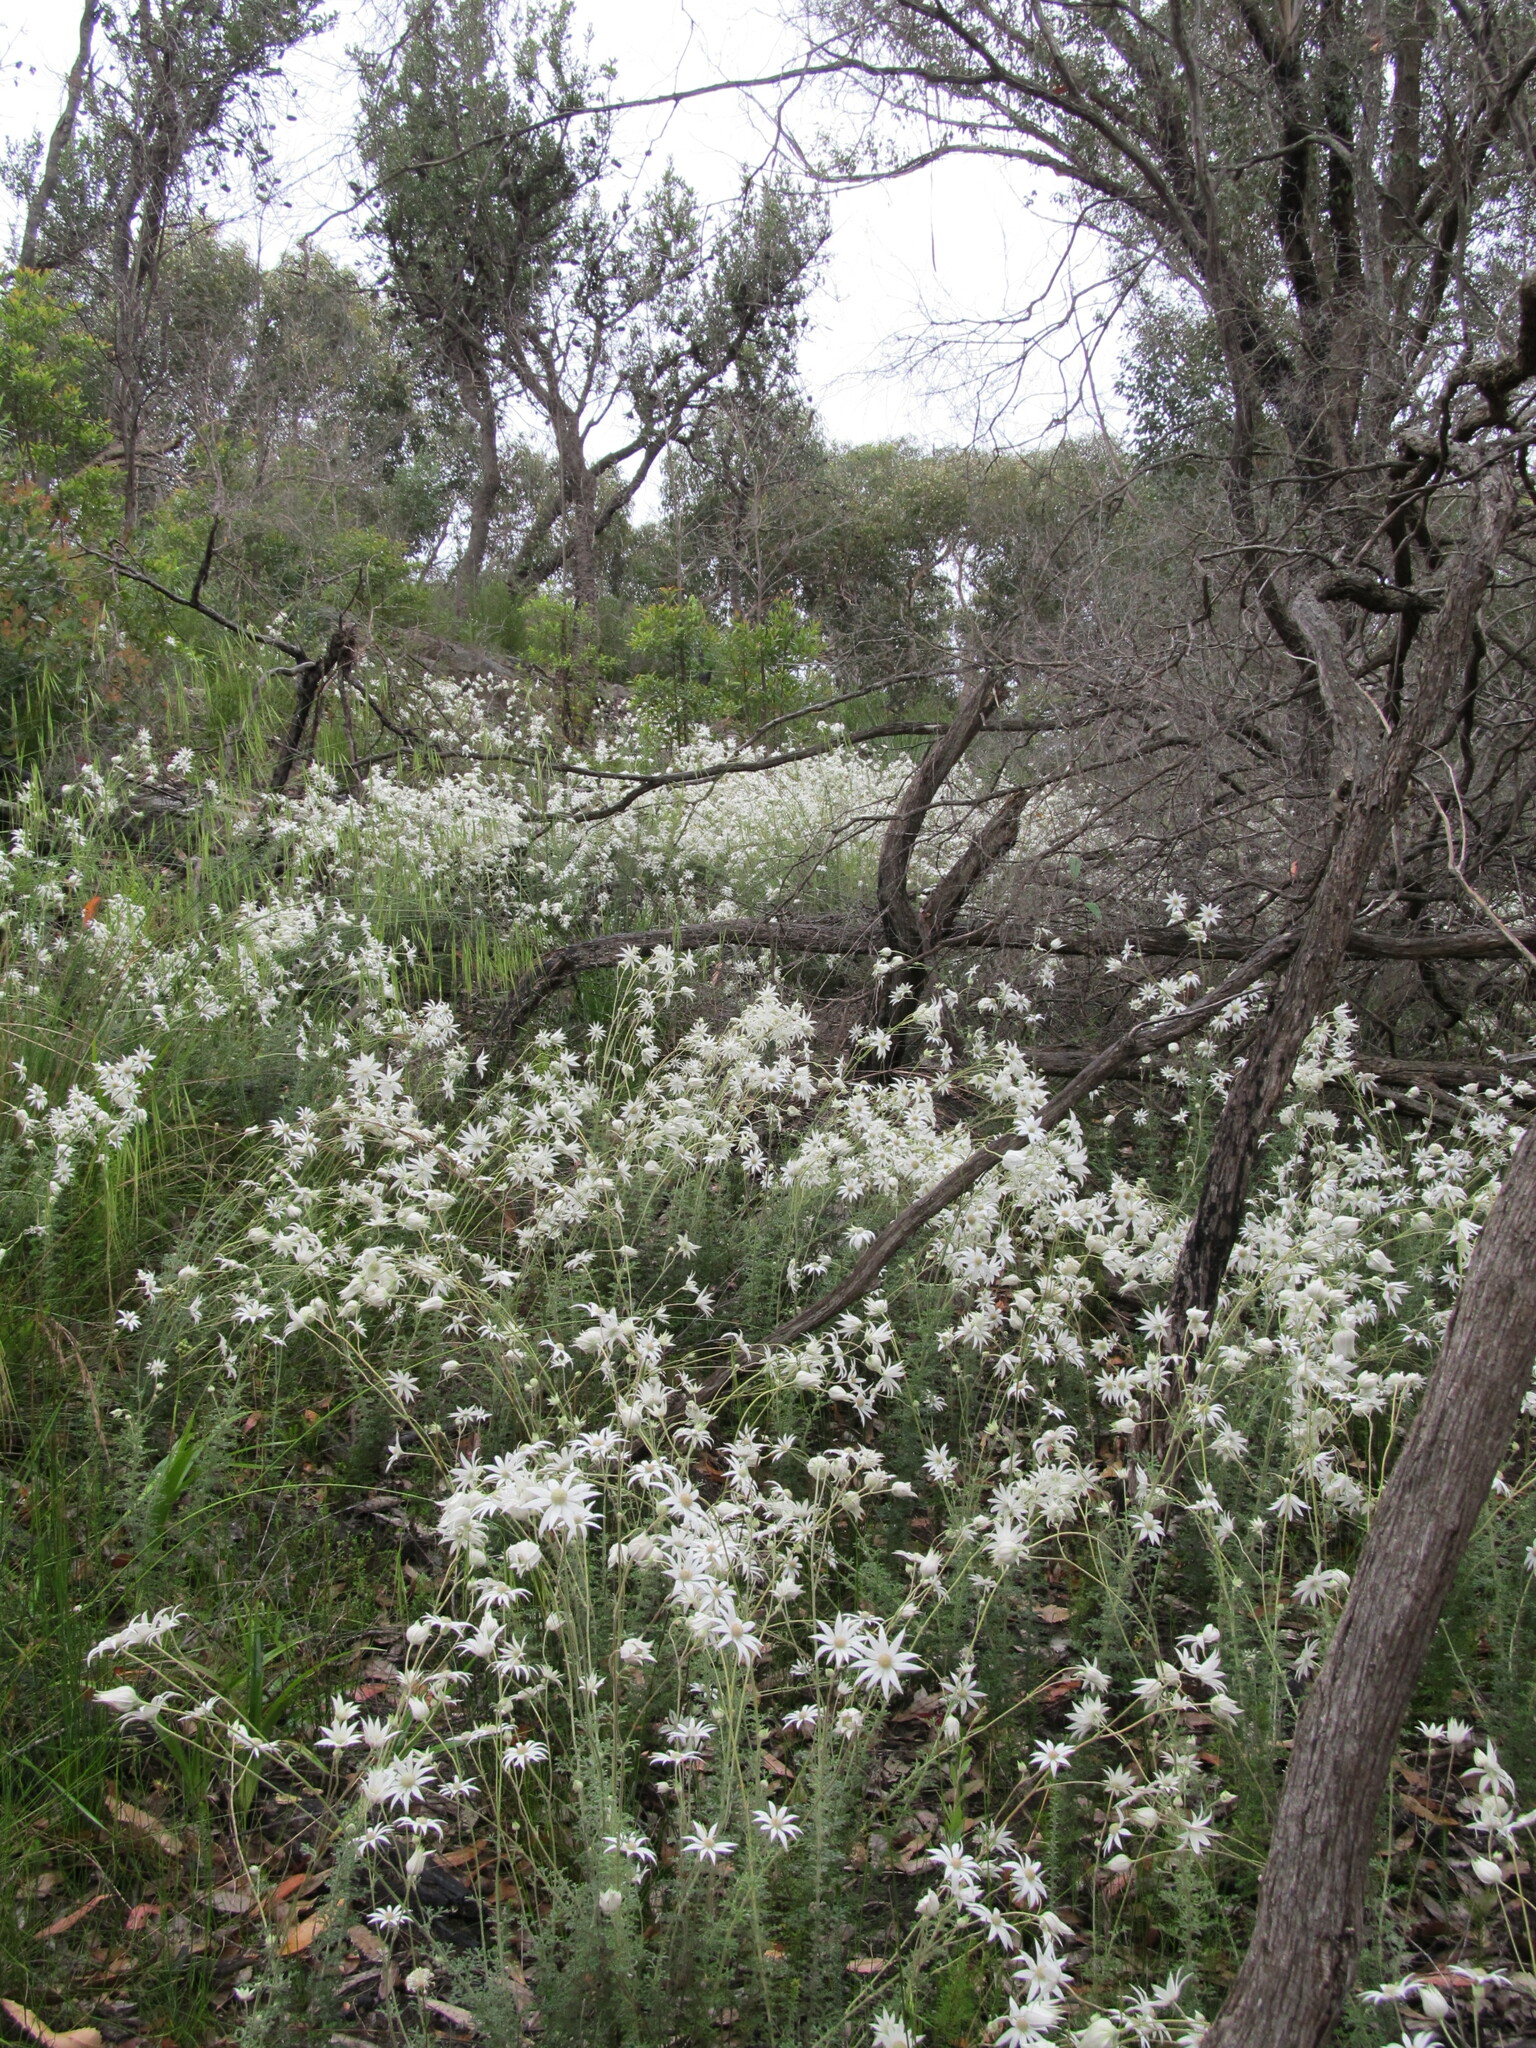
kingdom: Plantae
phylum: Tracheophyta
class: Magnoliopsida
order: Apiales
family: Apiaceae
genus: Actinotus
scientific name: Actinotus helianthi
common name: Flannel-flower
